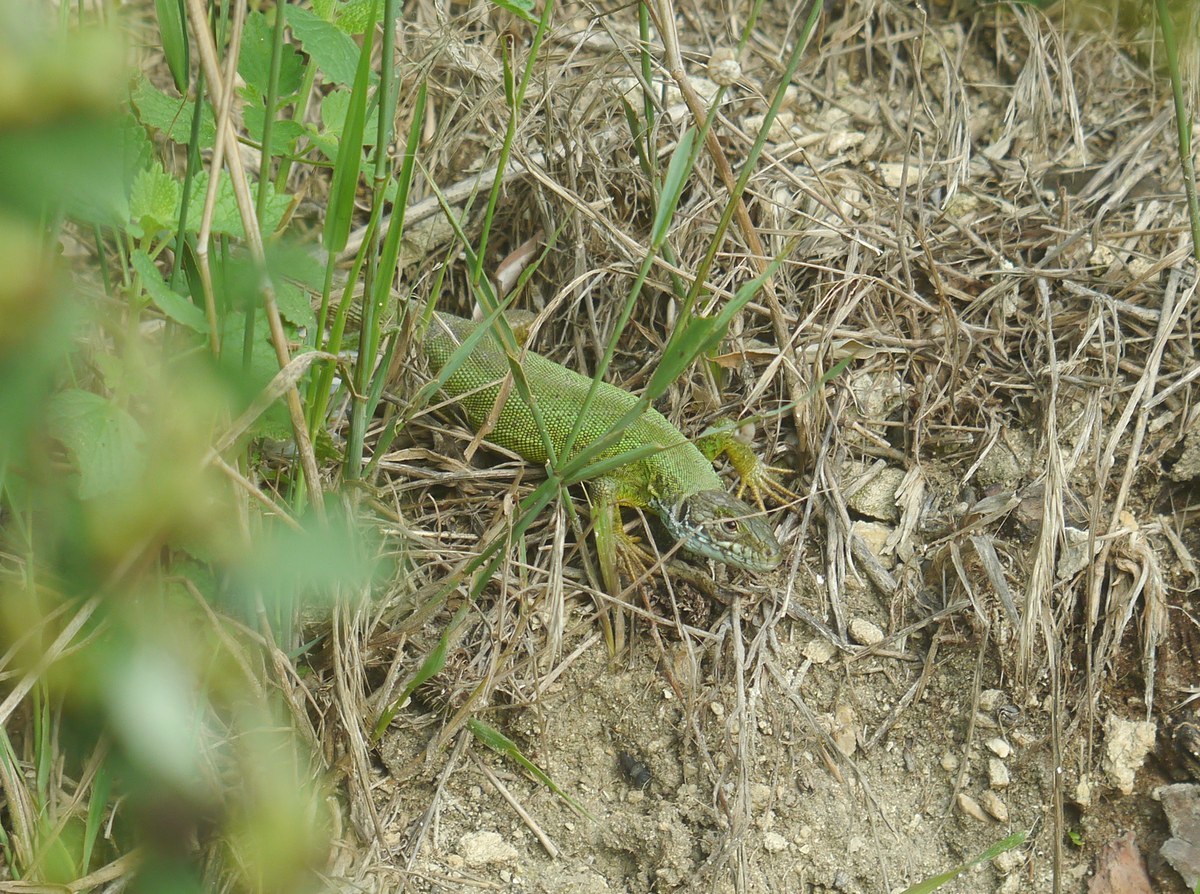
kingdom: Animalia
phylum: Chordata
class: Squamata
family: Lacertidae
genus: Lacerta
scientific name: Lacerta viridis
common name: European green lizard
